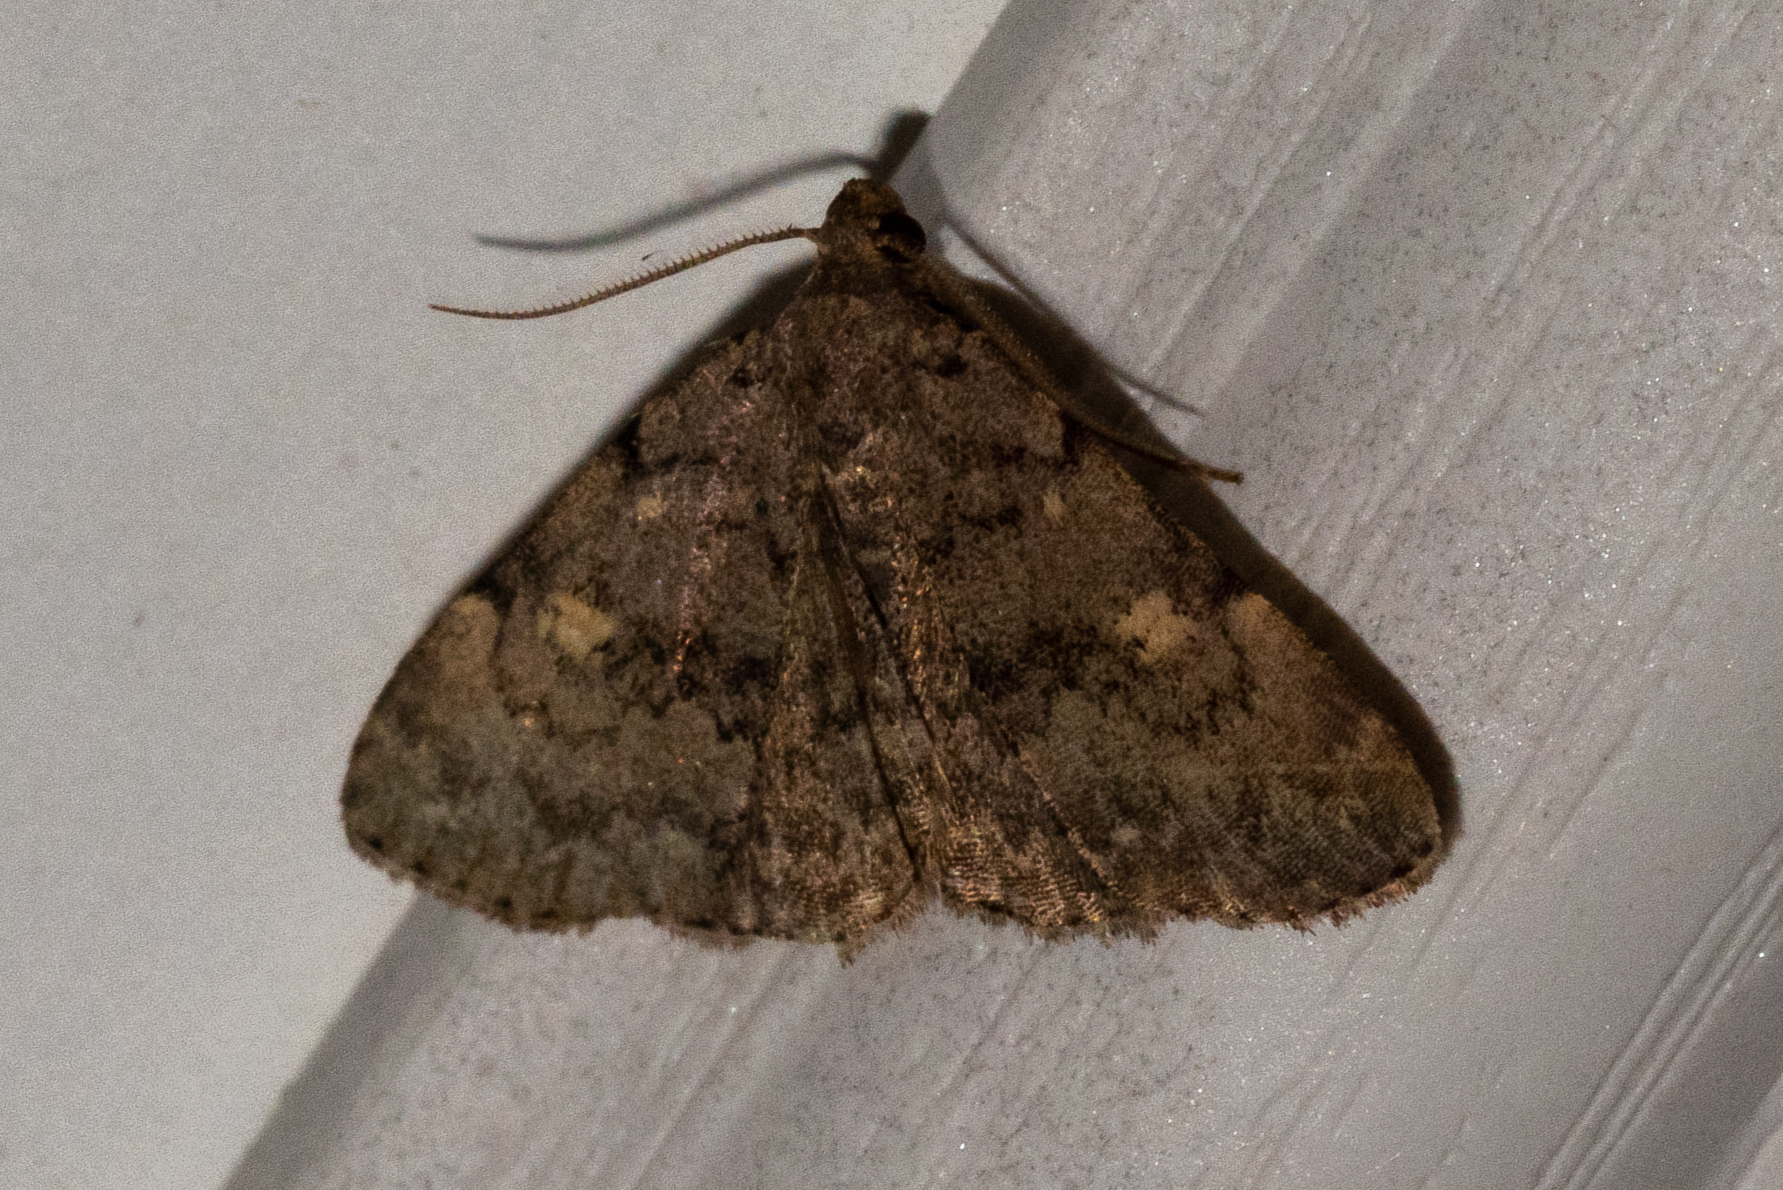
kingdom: Animalia
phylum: Arthropoda
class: Insecta
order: Lepidoptera
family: Erebidae
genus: Idia
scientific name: Idia aemula
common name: Common idia moth
